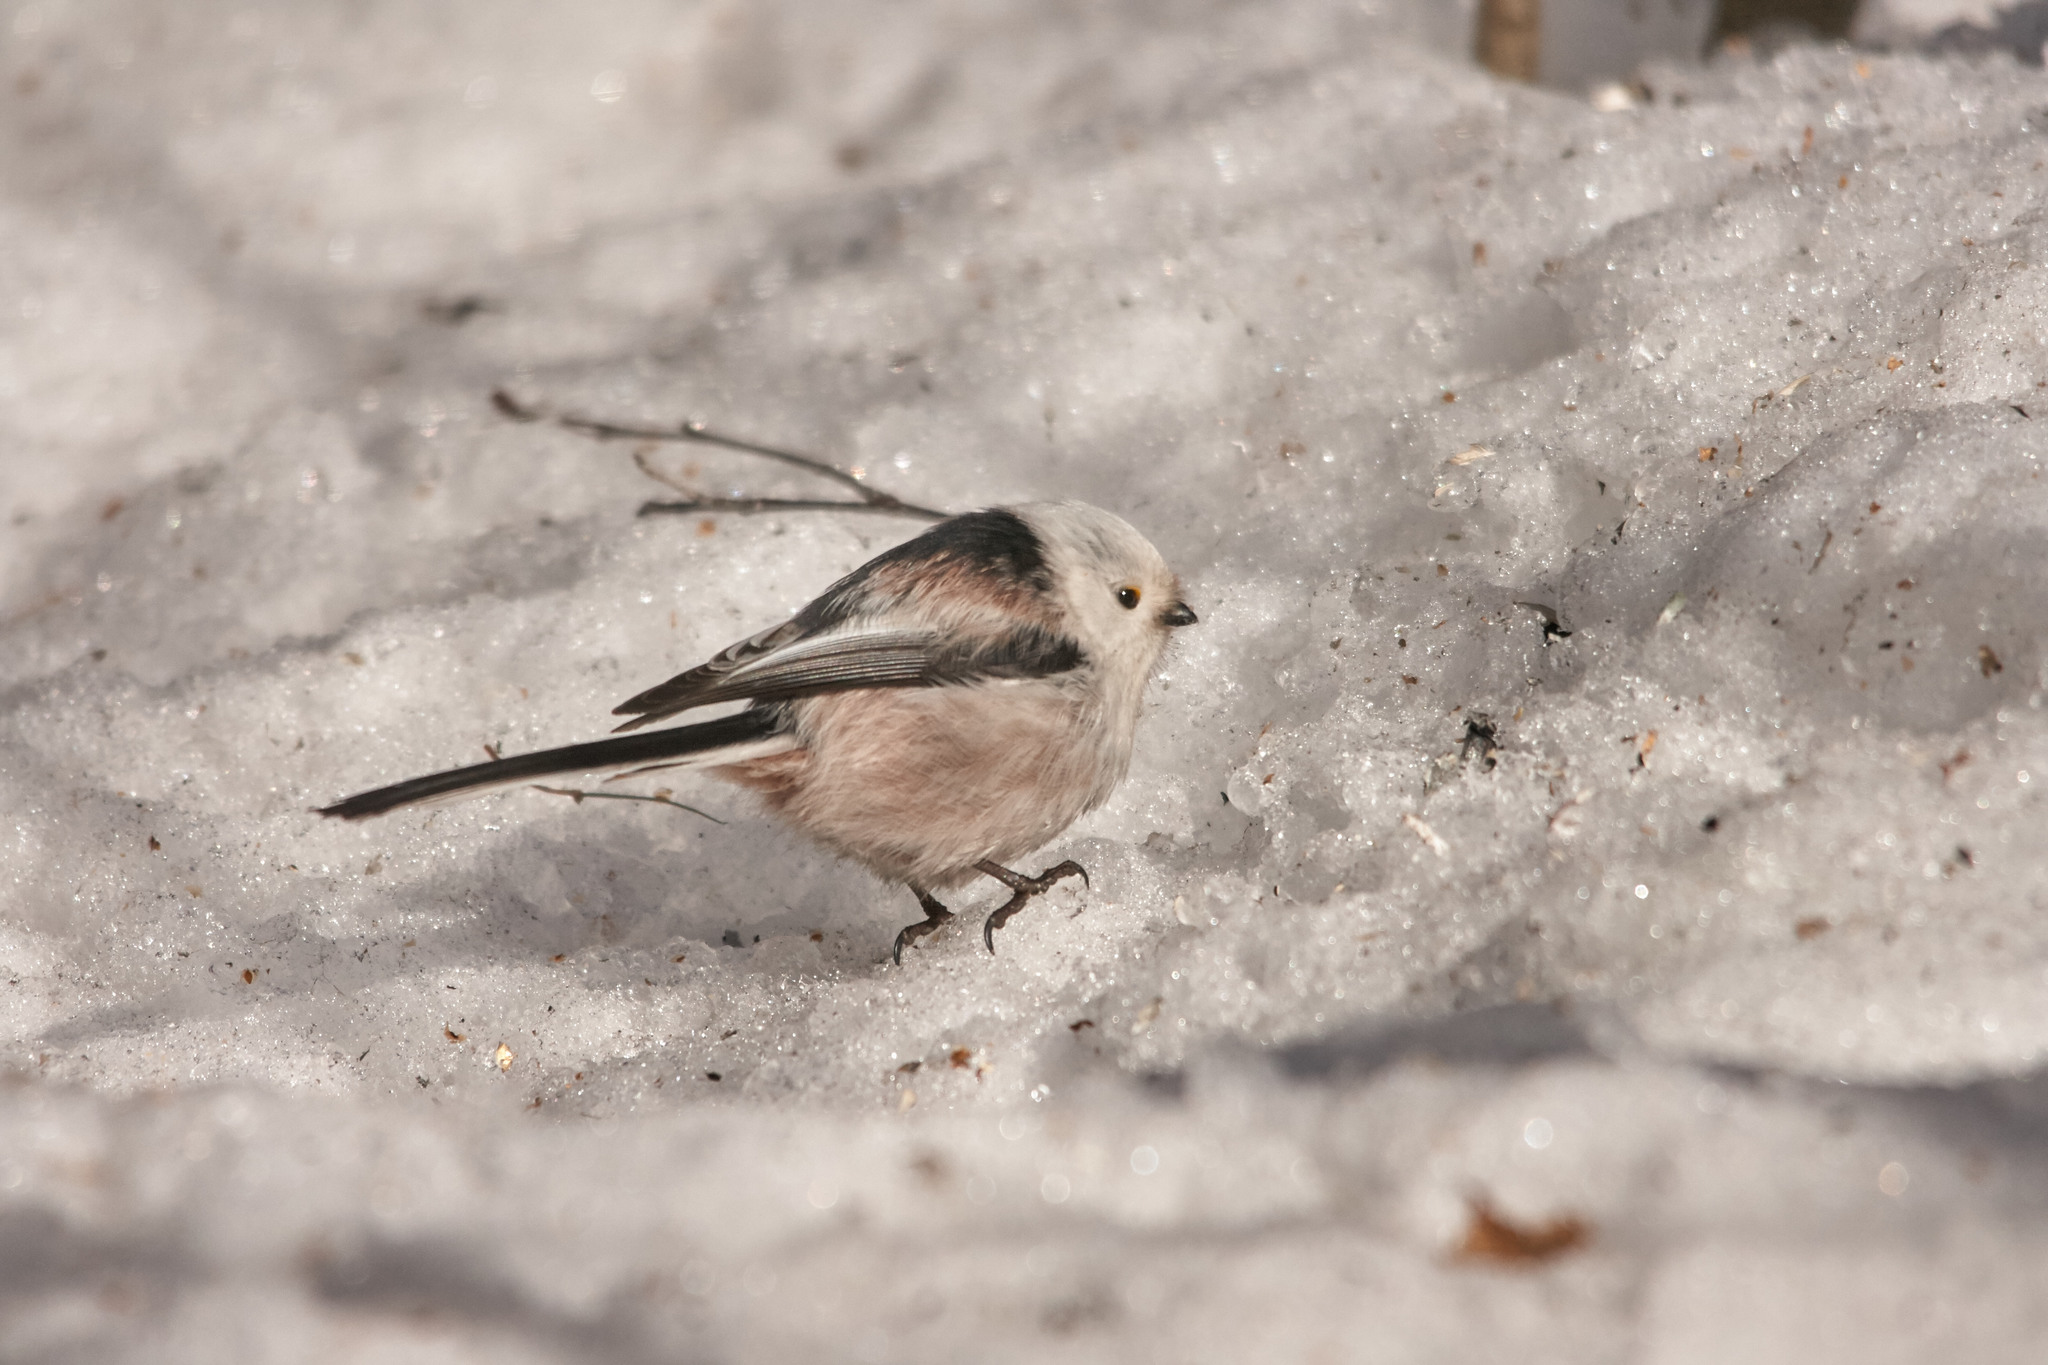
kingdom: Animalia
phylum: Chordata
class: Aves
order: Passeriformes
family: Aegithalidae
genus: Aegithalos
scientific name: Aegithalos caudatus
